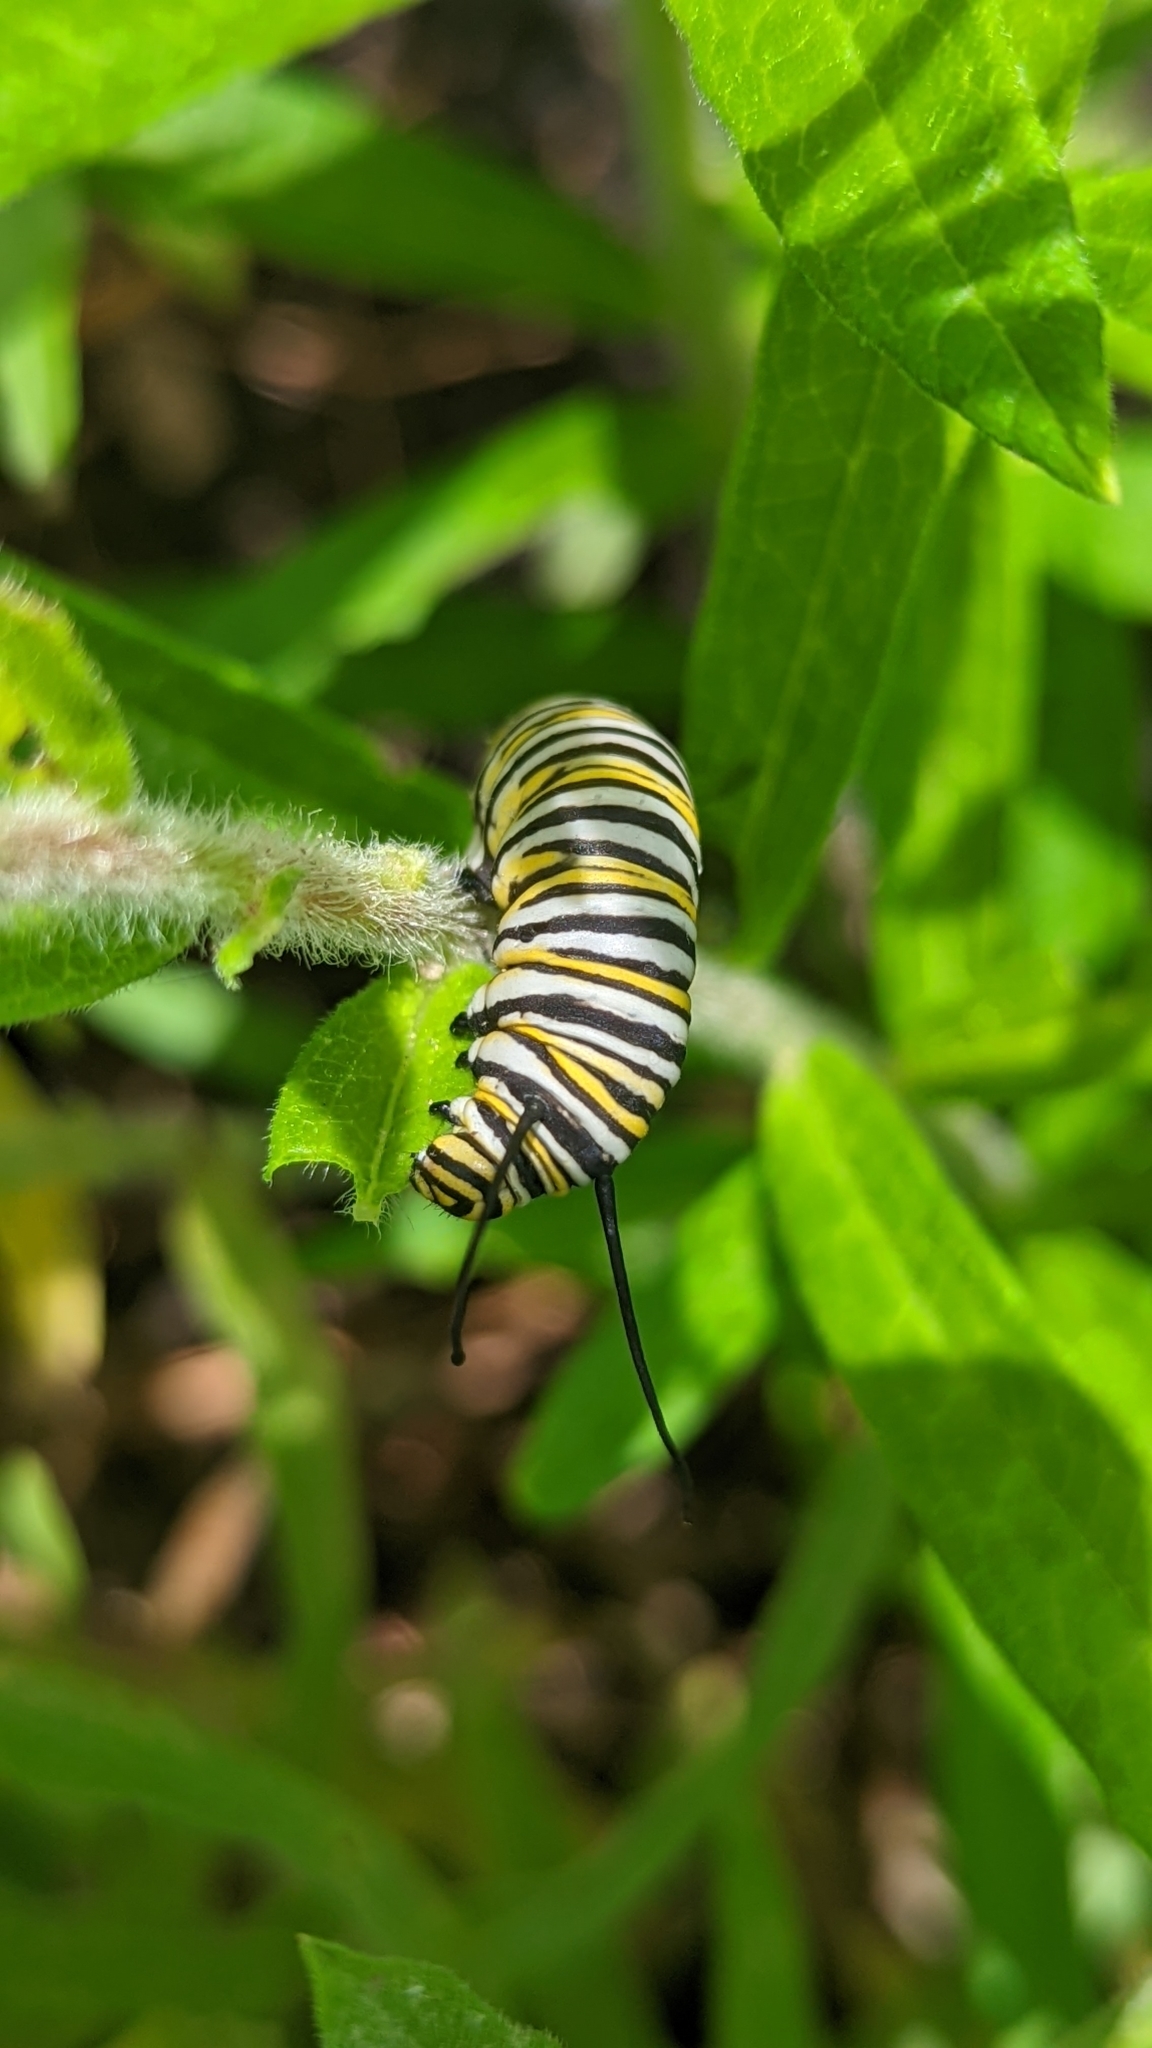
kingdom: Animalia
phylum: Arthropoda
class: Insecta
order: Lepidoptera
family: Nymphalidae
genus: Danaus
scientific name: Danaus plexippus
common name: Monarch
